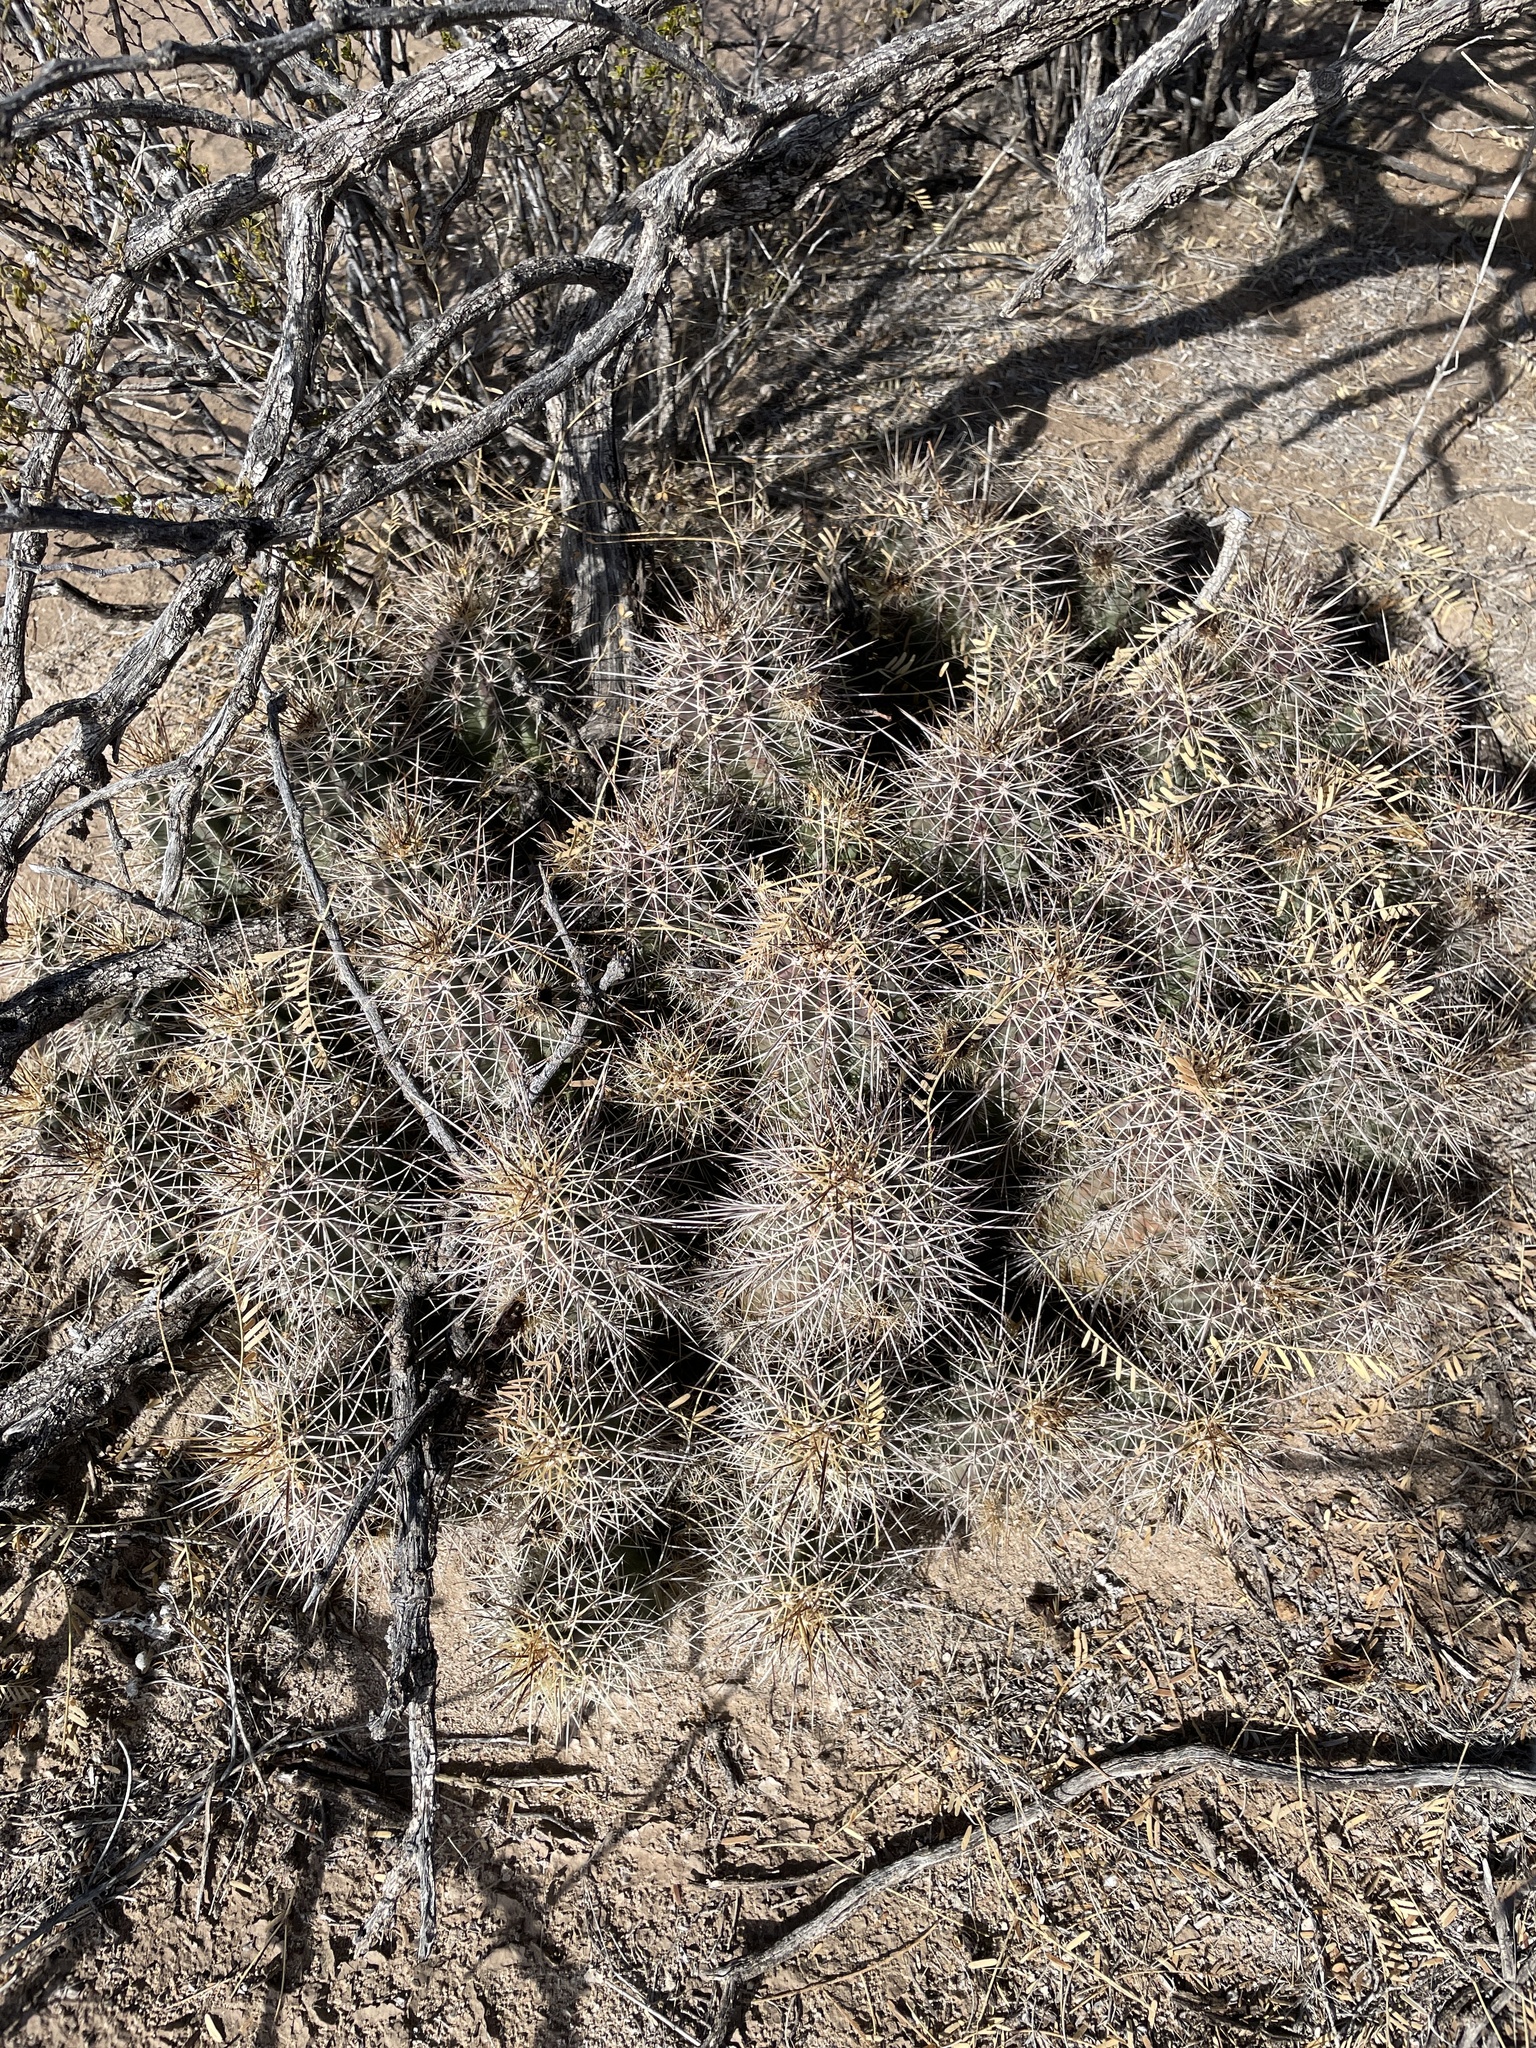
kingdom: Plantae
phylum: Tracheophyta
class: Magnoliopsida
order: Caryophyllales
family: Cactaceae
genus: Echinocereus
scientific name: Echinocereus coccineus
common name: Scarlet hedgehog cactus
